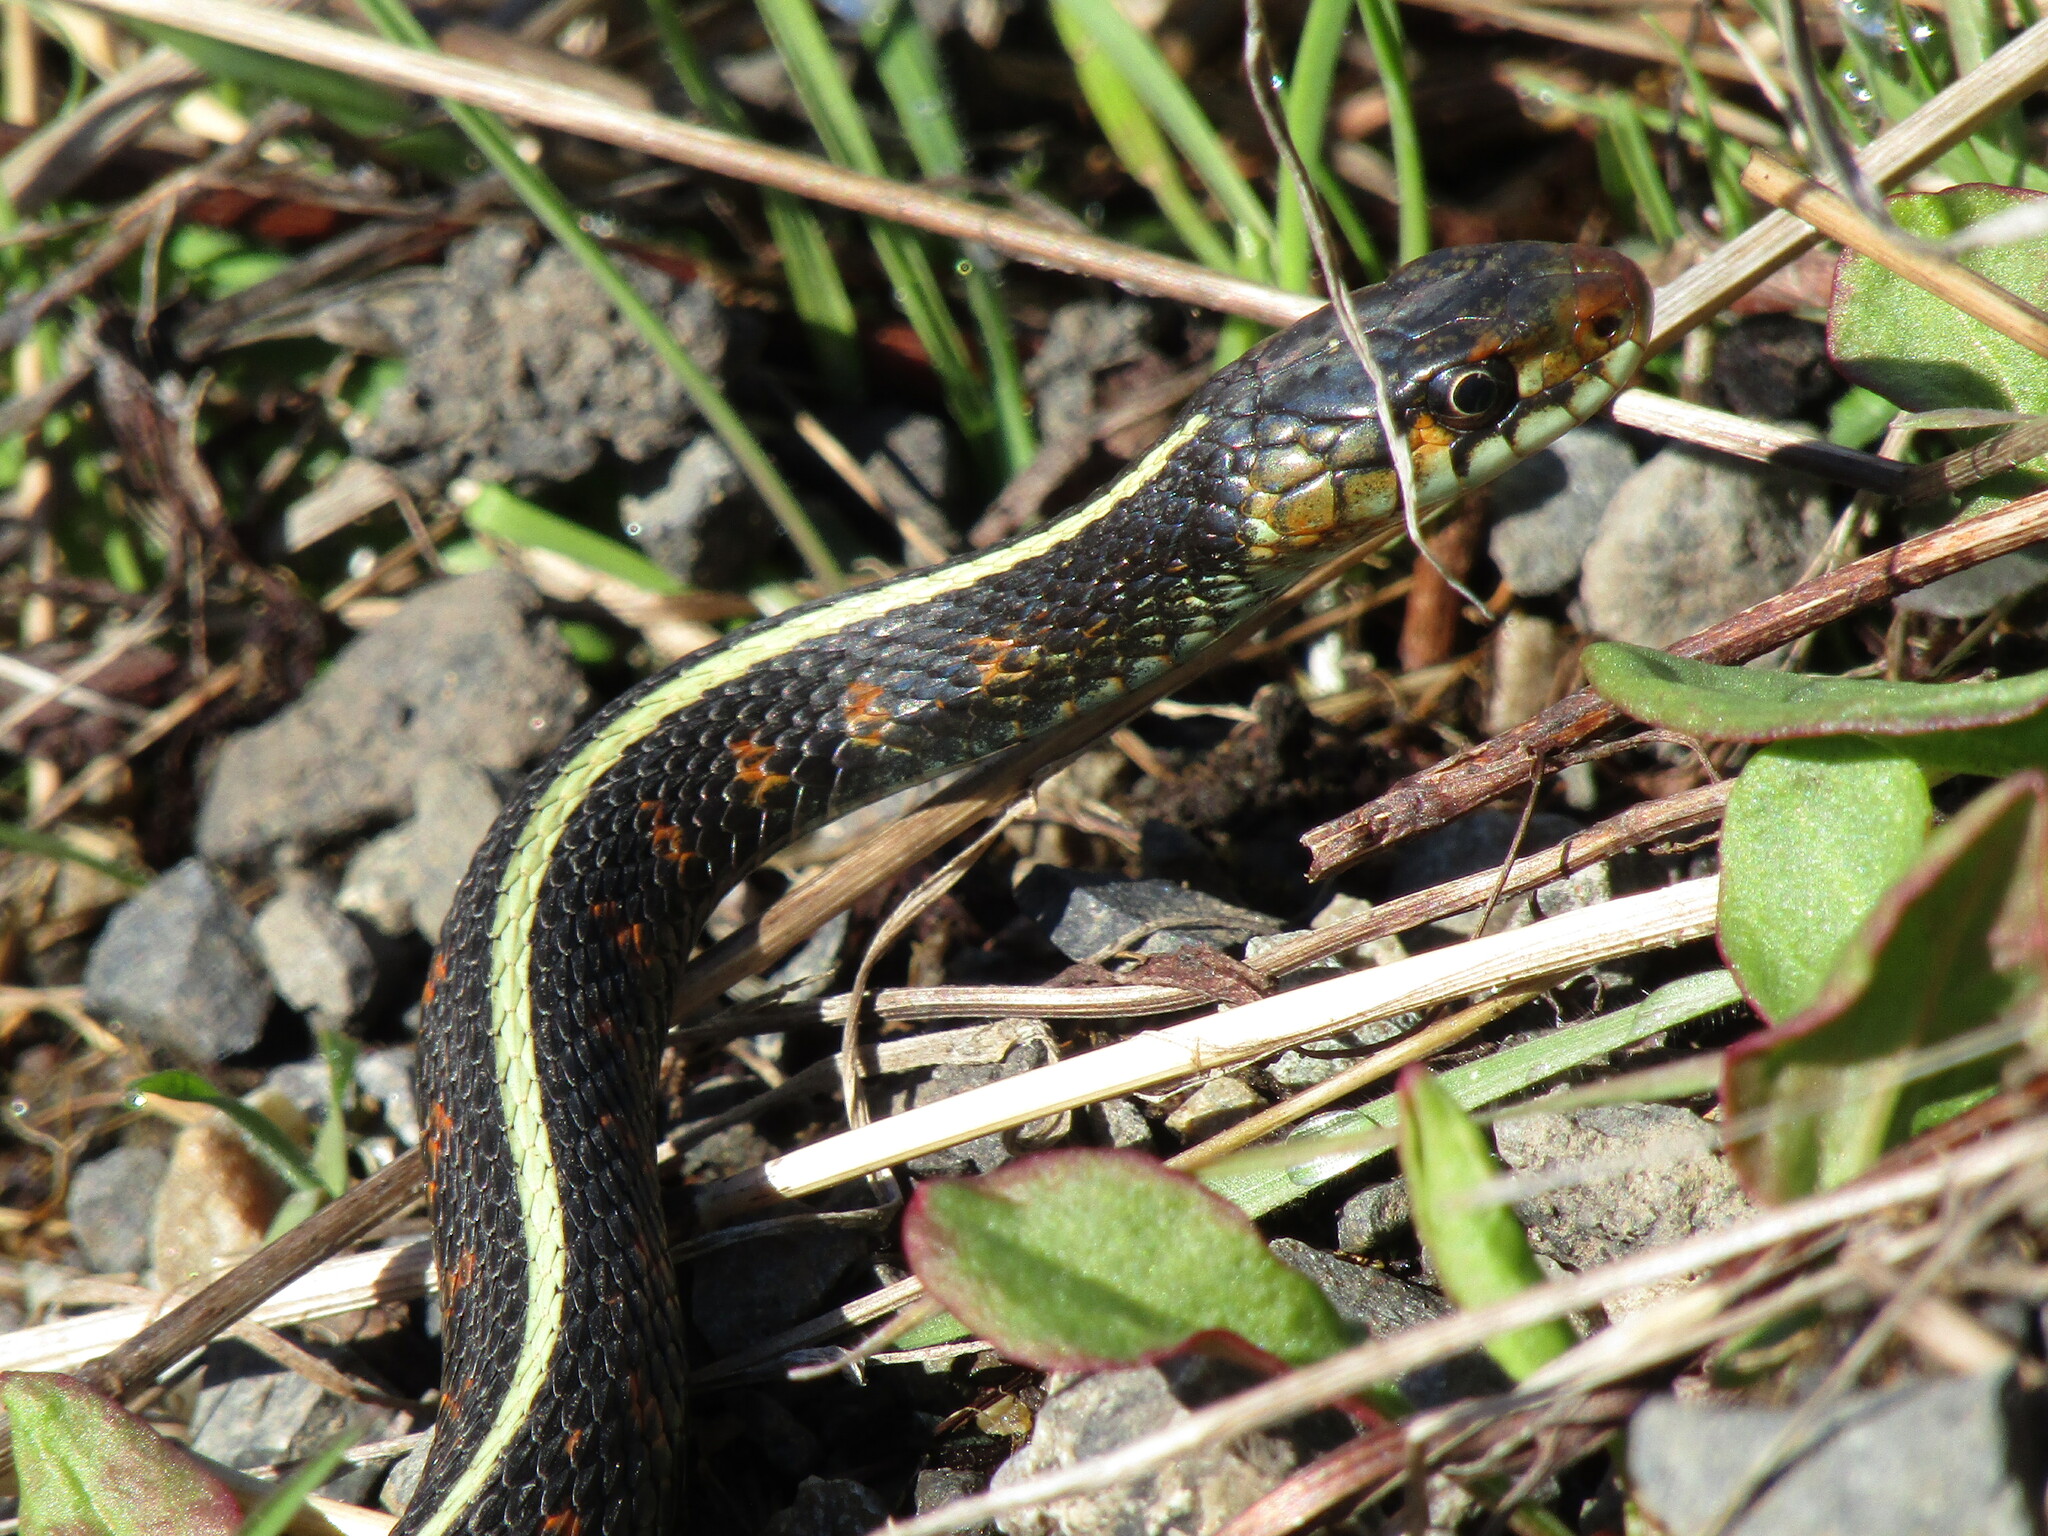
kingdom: Animalia
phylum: Chordata
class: Squamata
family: Colubridae
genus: Thamnophis
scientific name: Thamnophis sirtalis
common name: Common garter snake
